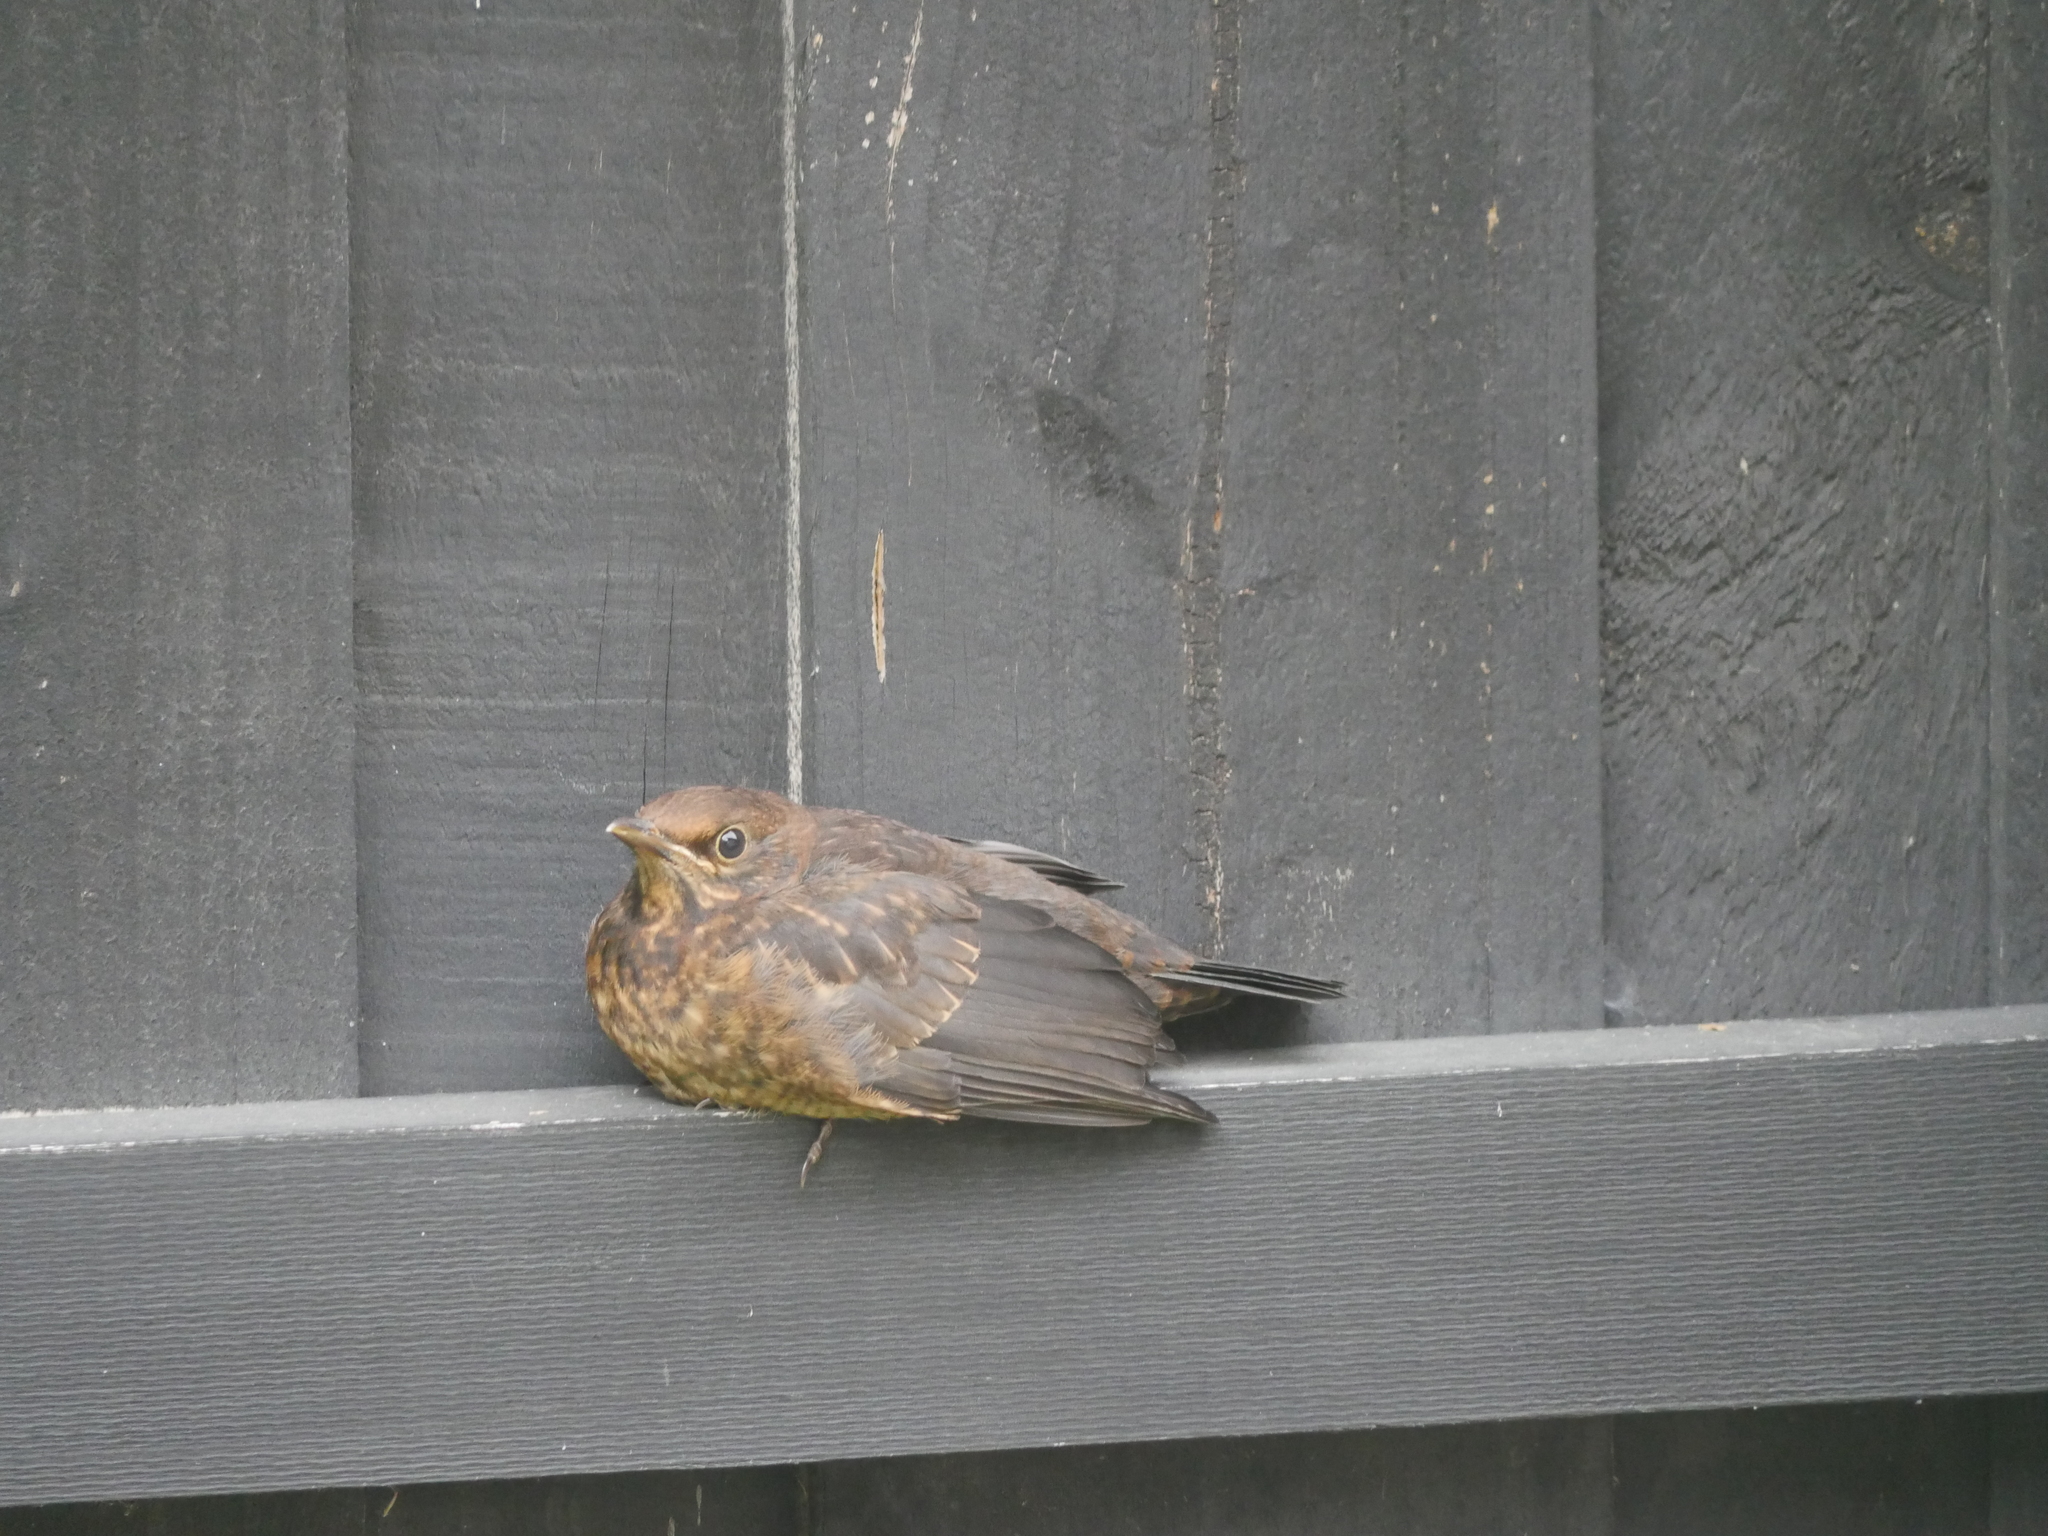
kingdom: Animalia
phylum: Chordata
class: Aves
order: Passeriformes
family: Turdidae
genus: Turdus
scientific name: Turdus merula
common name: Common blackbird
